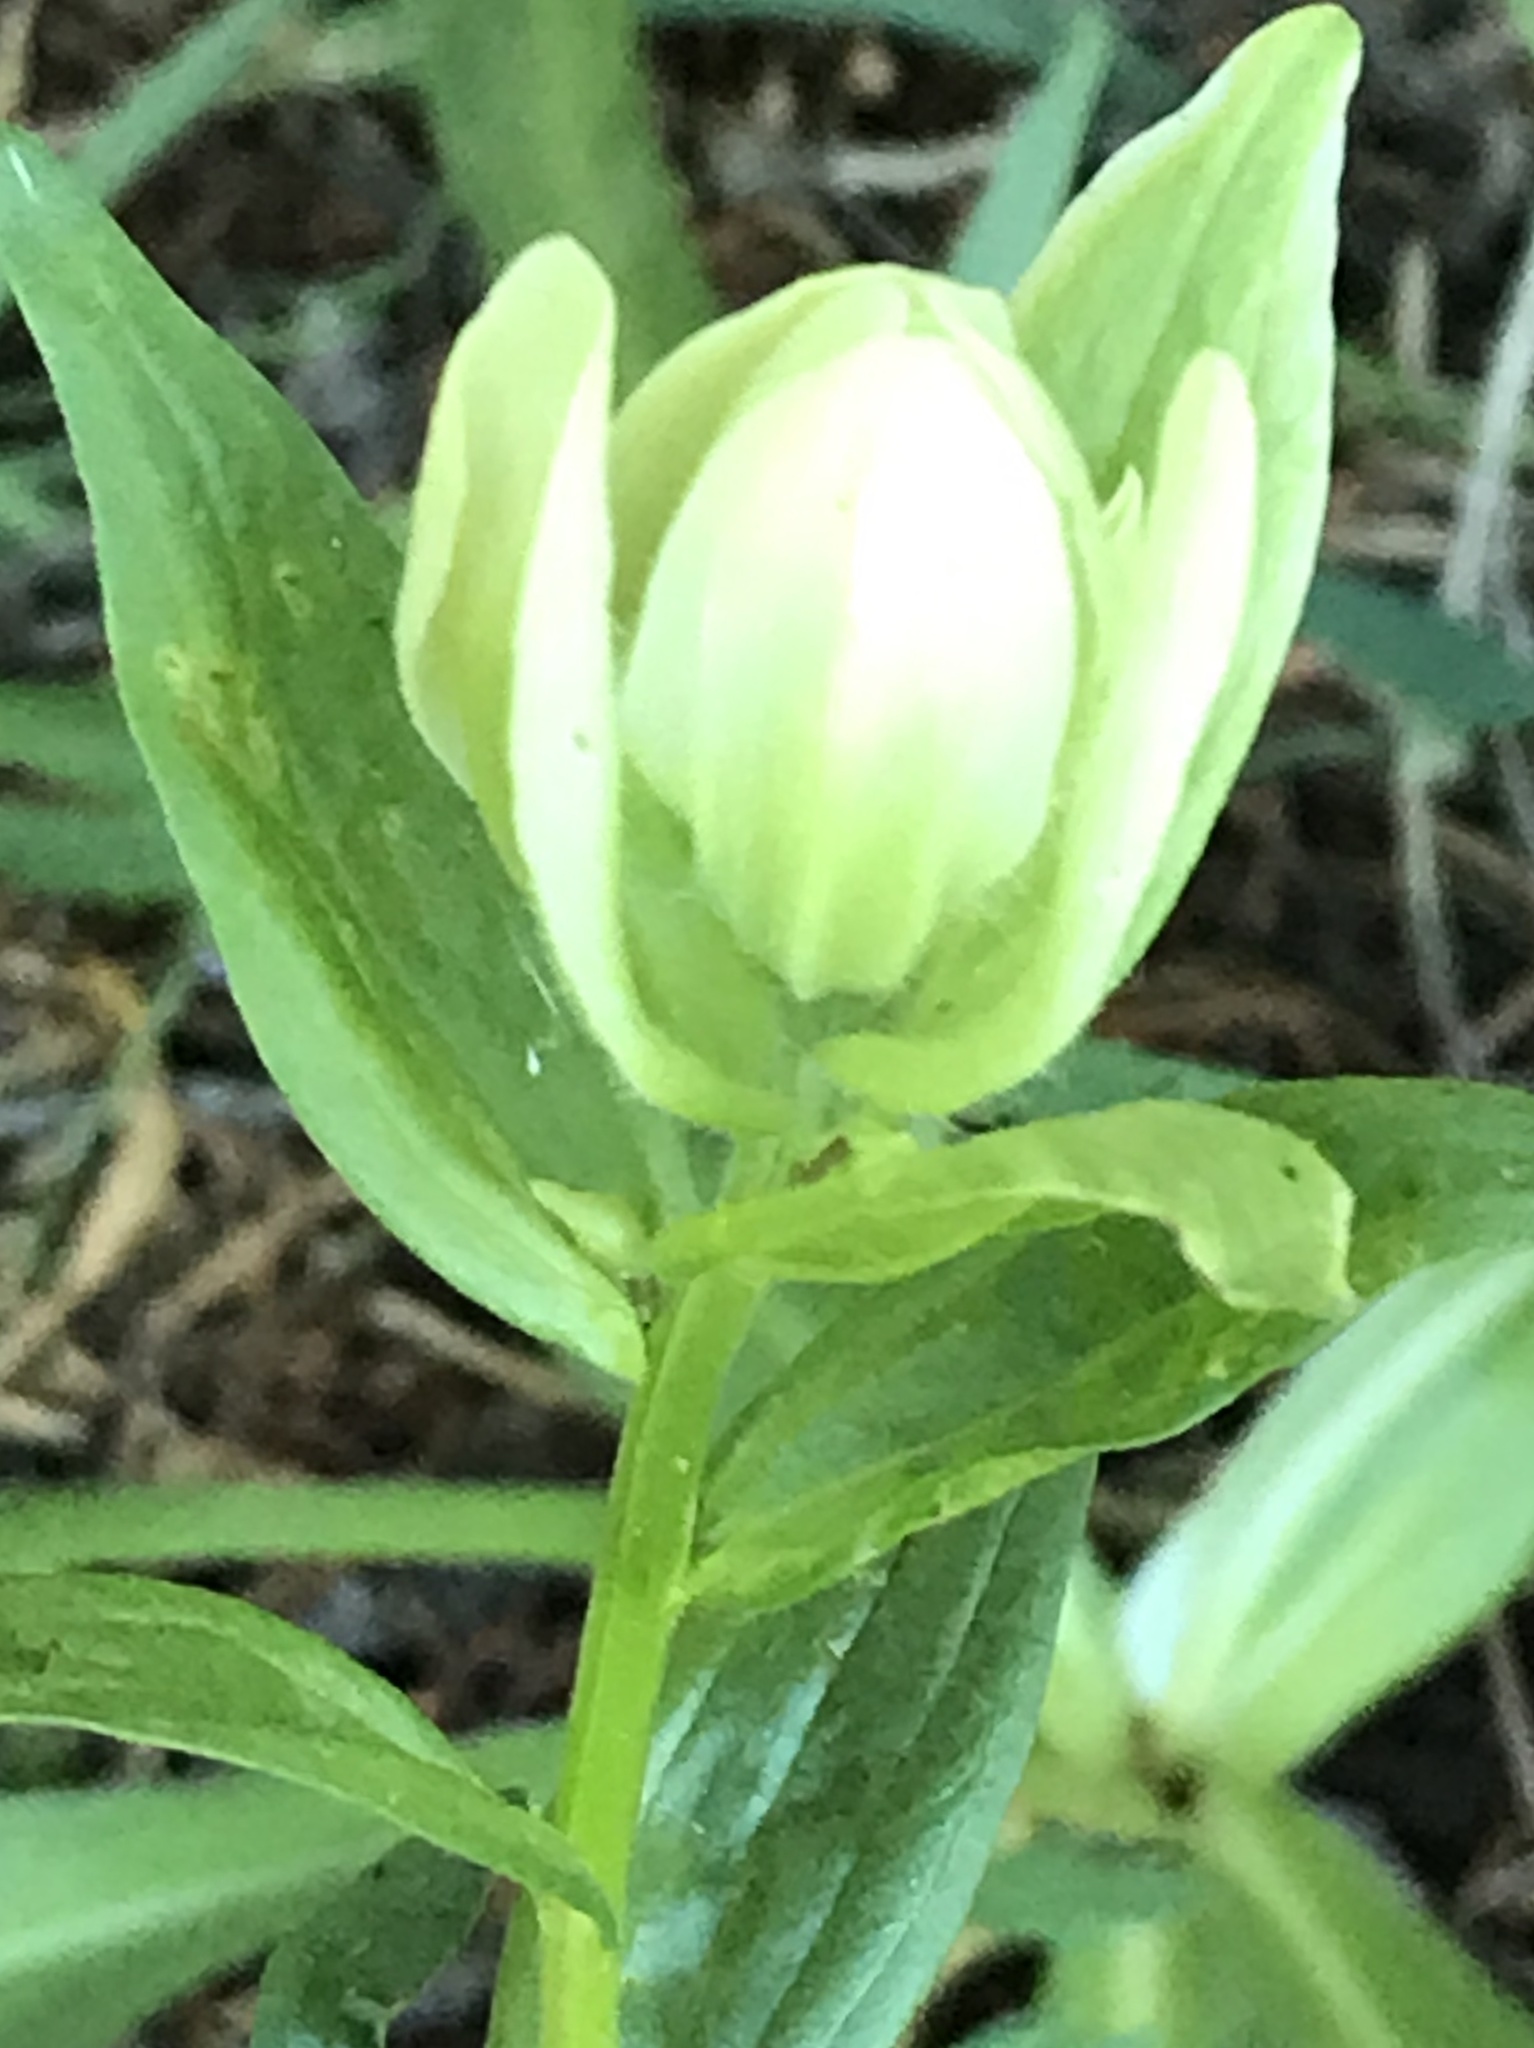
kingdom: Plantae
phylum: Tracheophyta
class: Magnoliopsida
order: Lamiales
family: Orobanchaceae
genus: Castilleja
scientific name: Castilleja septentrionalis
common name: Northeastern paintbrush
